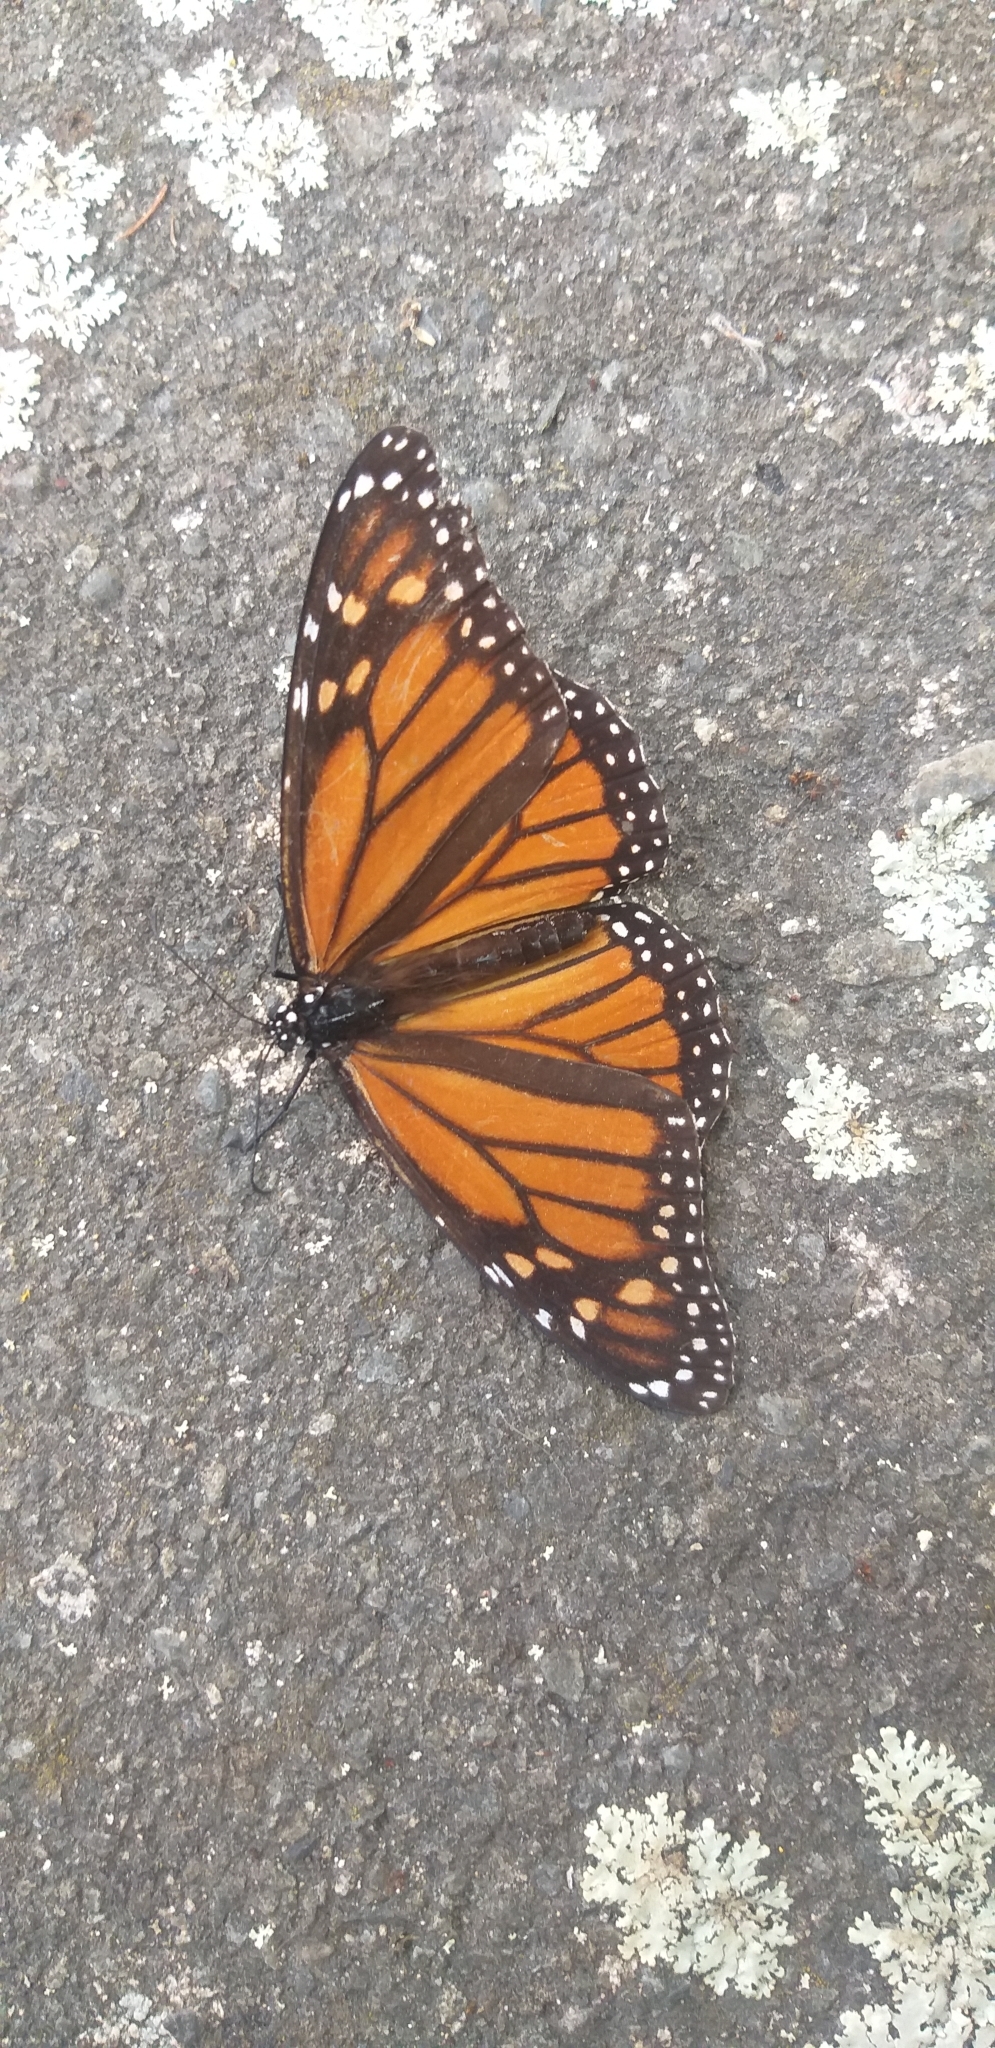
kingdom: Animalia
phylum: Arthropoda
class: Insecta
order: Lepidoptera
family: Nymphalidae
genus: Danaus
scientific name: Danaus plexippus
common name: Monarch
